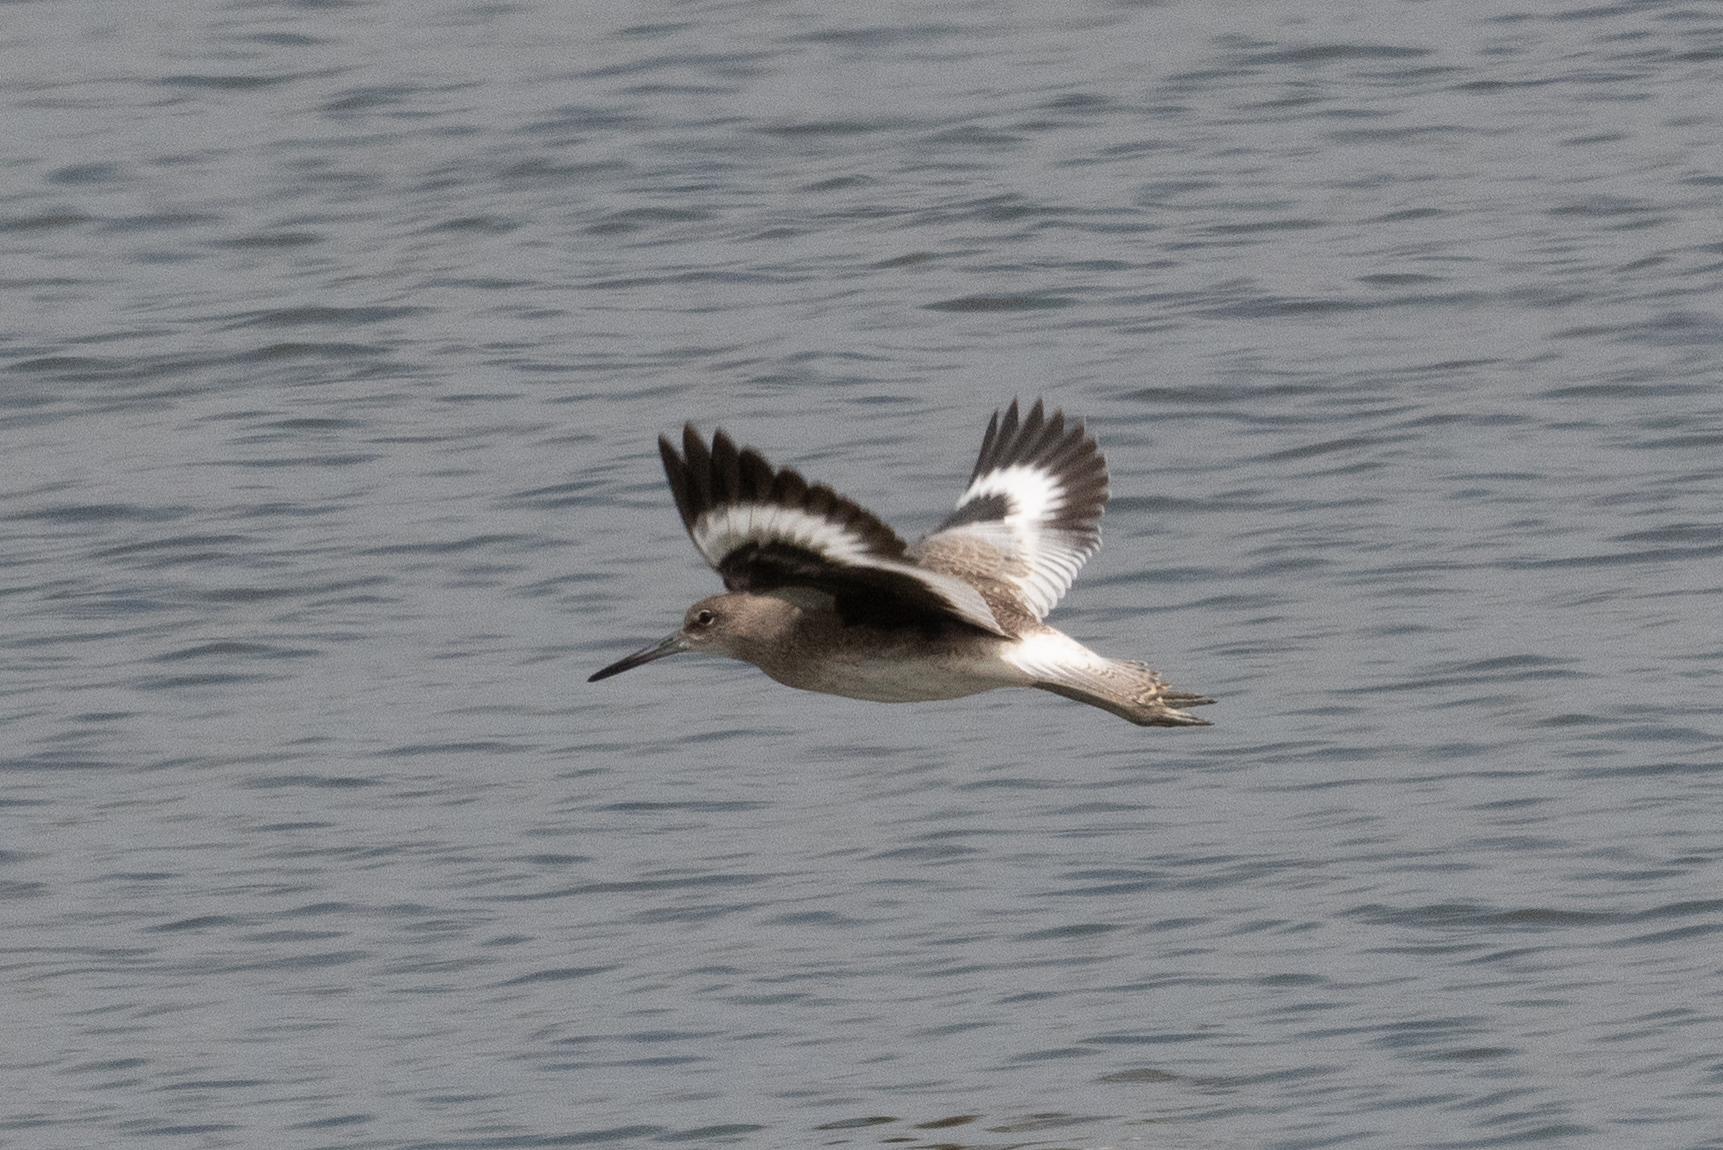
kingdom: Animalia
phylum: Chordata
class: Aves
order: Charadriiformes
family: Scolopacidae
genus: Tringa
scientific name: Tringa semipalmata
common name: Willet
